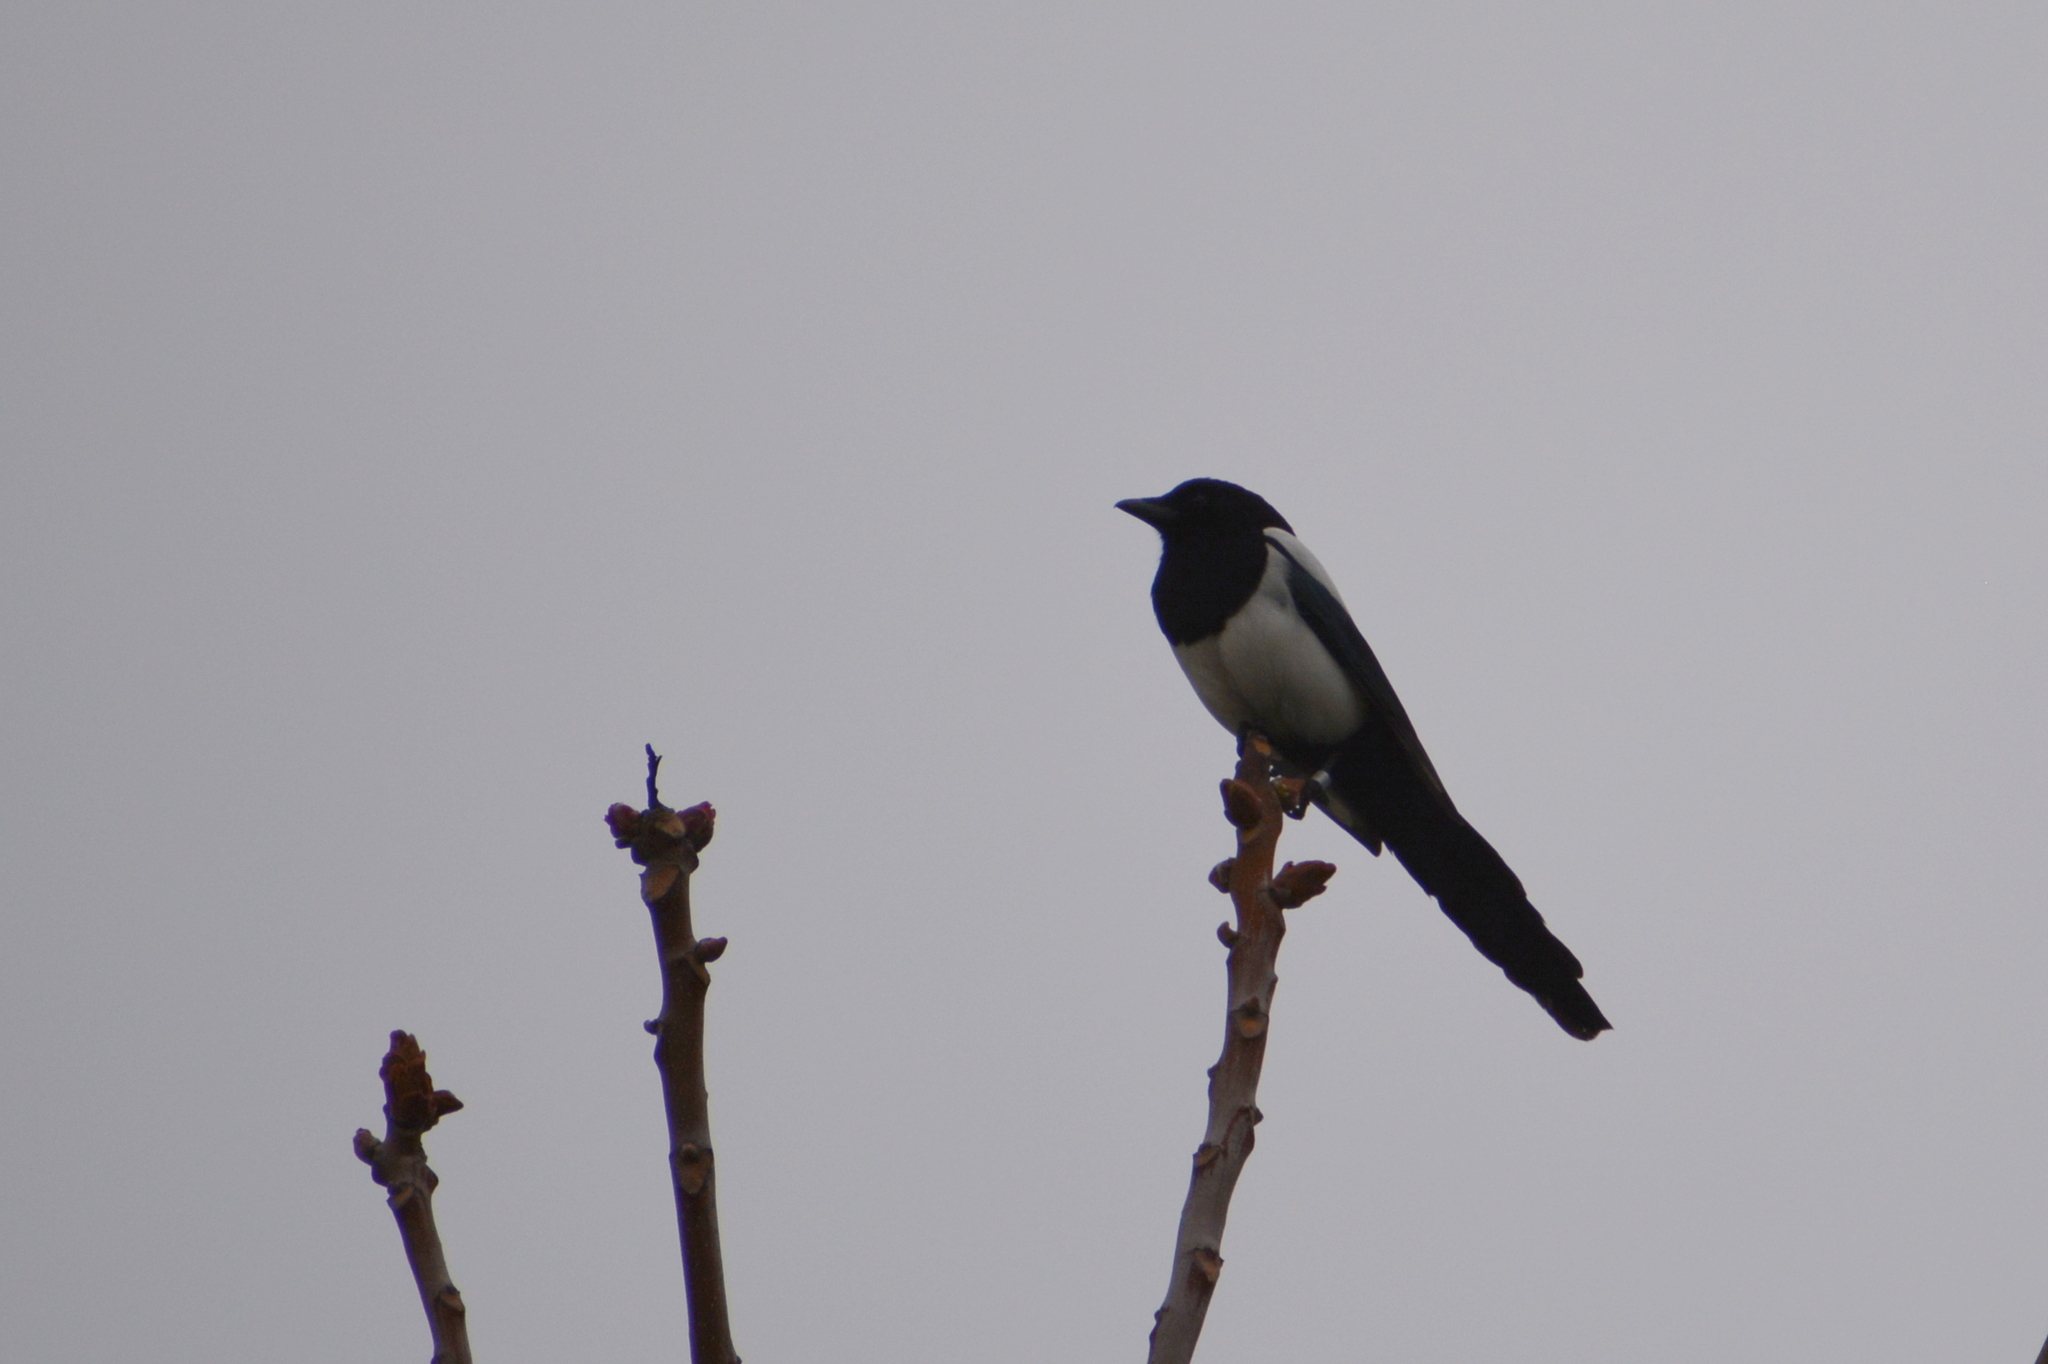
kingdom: Animalia
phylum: Chordata
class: Aves
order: Passeriformes
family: Corvidae
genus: Pica
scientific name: Pica pica
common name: Eurasian magpie
